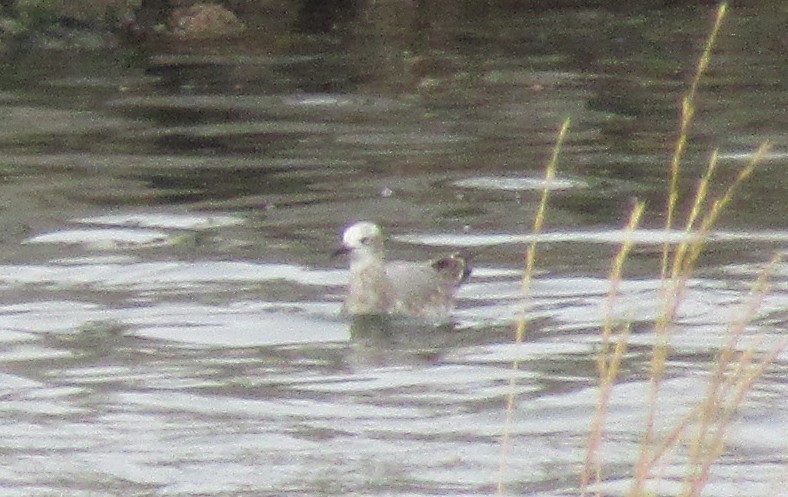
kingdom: Animalia
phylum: Chordata
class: Aves
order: Charadriiformes
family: Laridae
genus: Leucophaeus
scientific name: Leucophaeus atricilla
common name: Laughing gull
